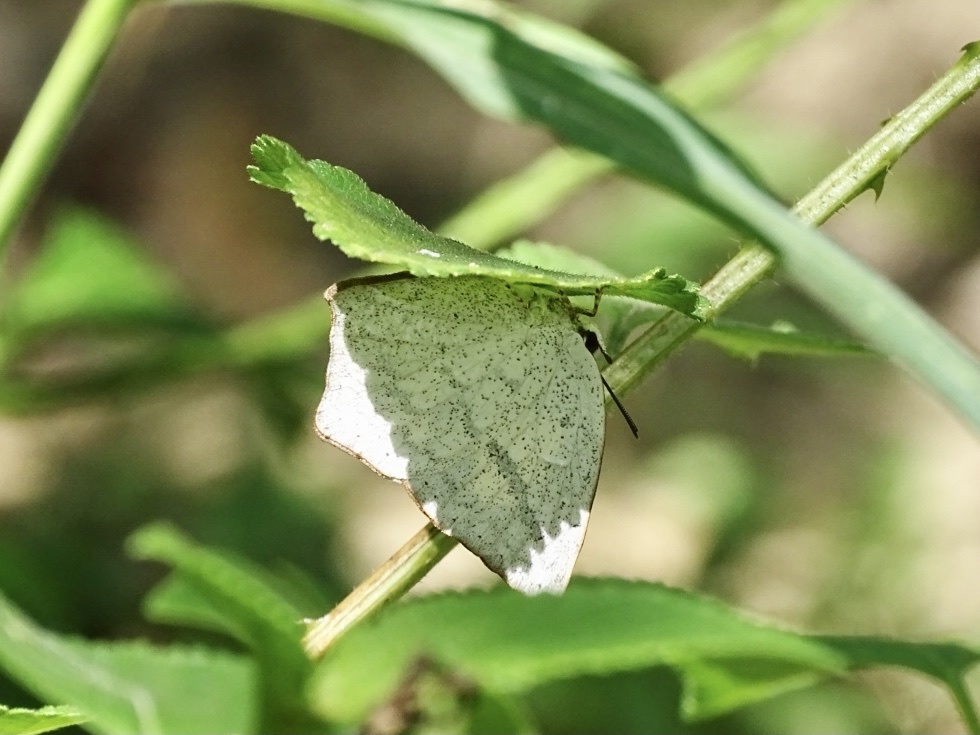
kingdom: Animalia
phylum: Arthropoda
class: Insecta
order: Lepidoptera
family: Lycaenidae
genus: Curetis
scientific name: Curetis acuta
